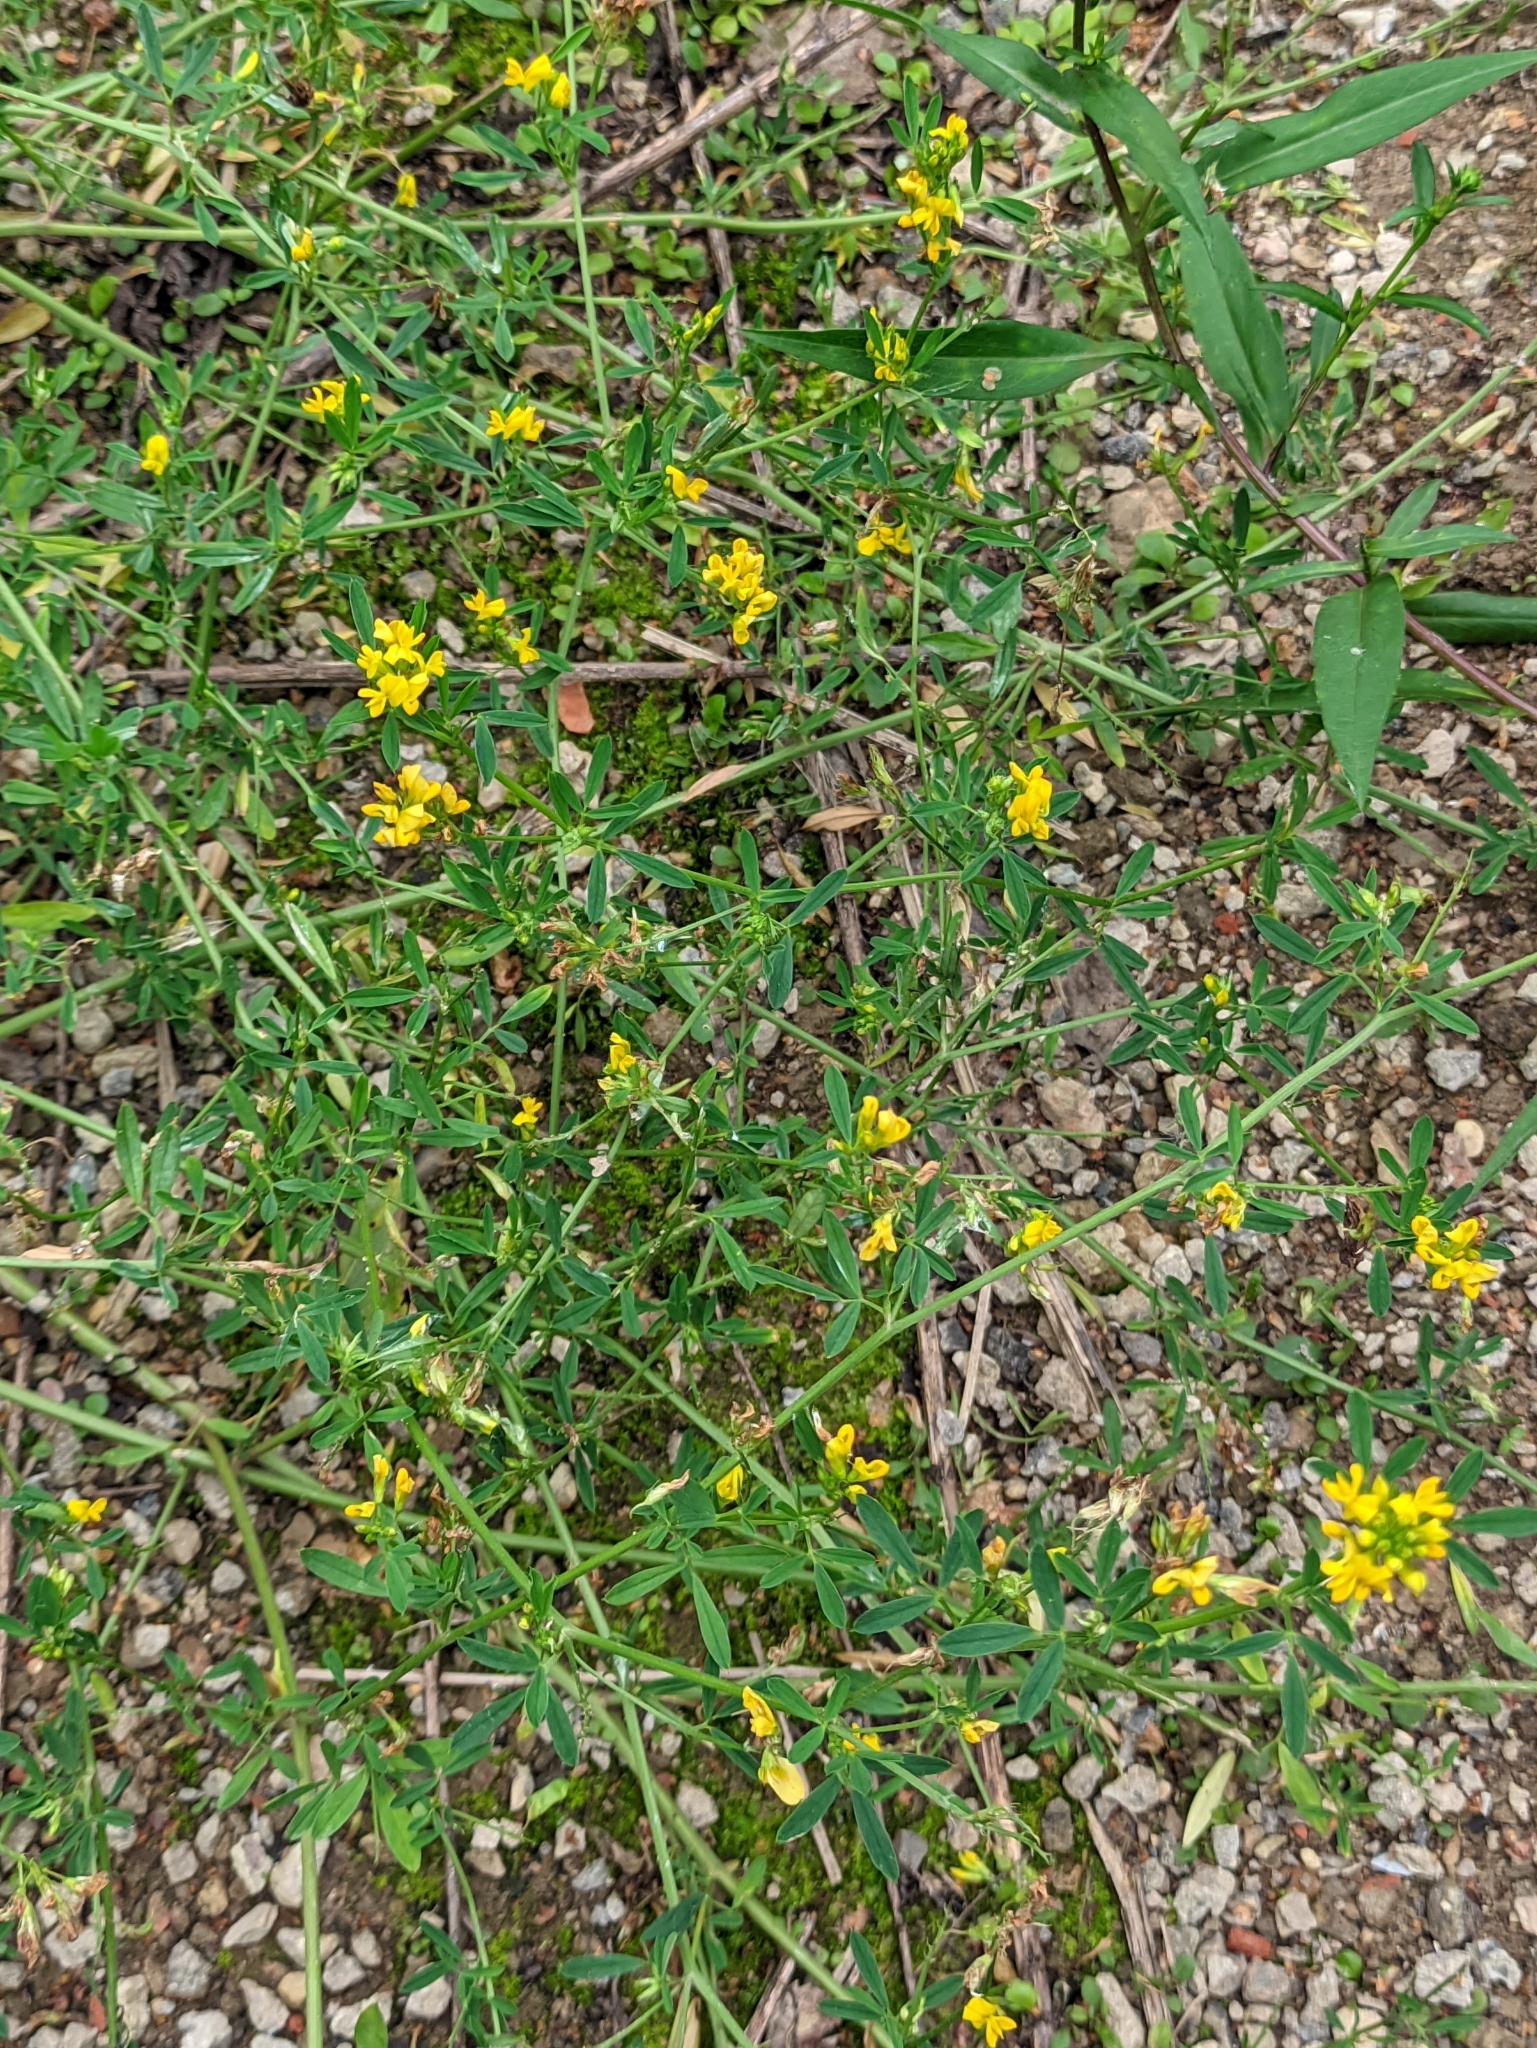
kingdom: Plantae
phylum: Tracheophyta
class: Magnoliopsida
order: Fabales
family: Fabaceae
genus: Medicago
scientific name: Medicago falcata
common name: Sickle medick
